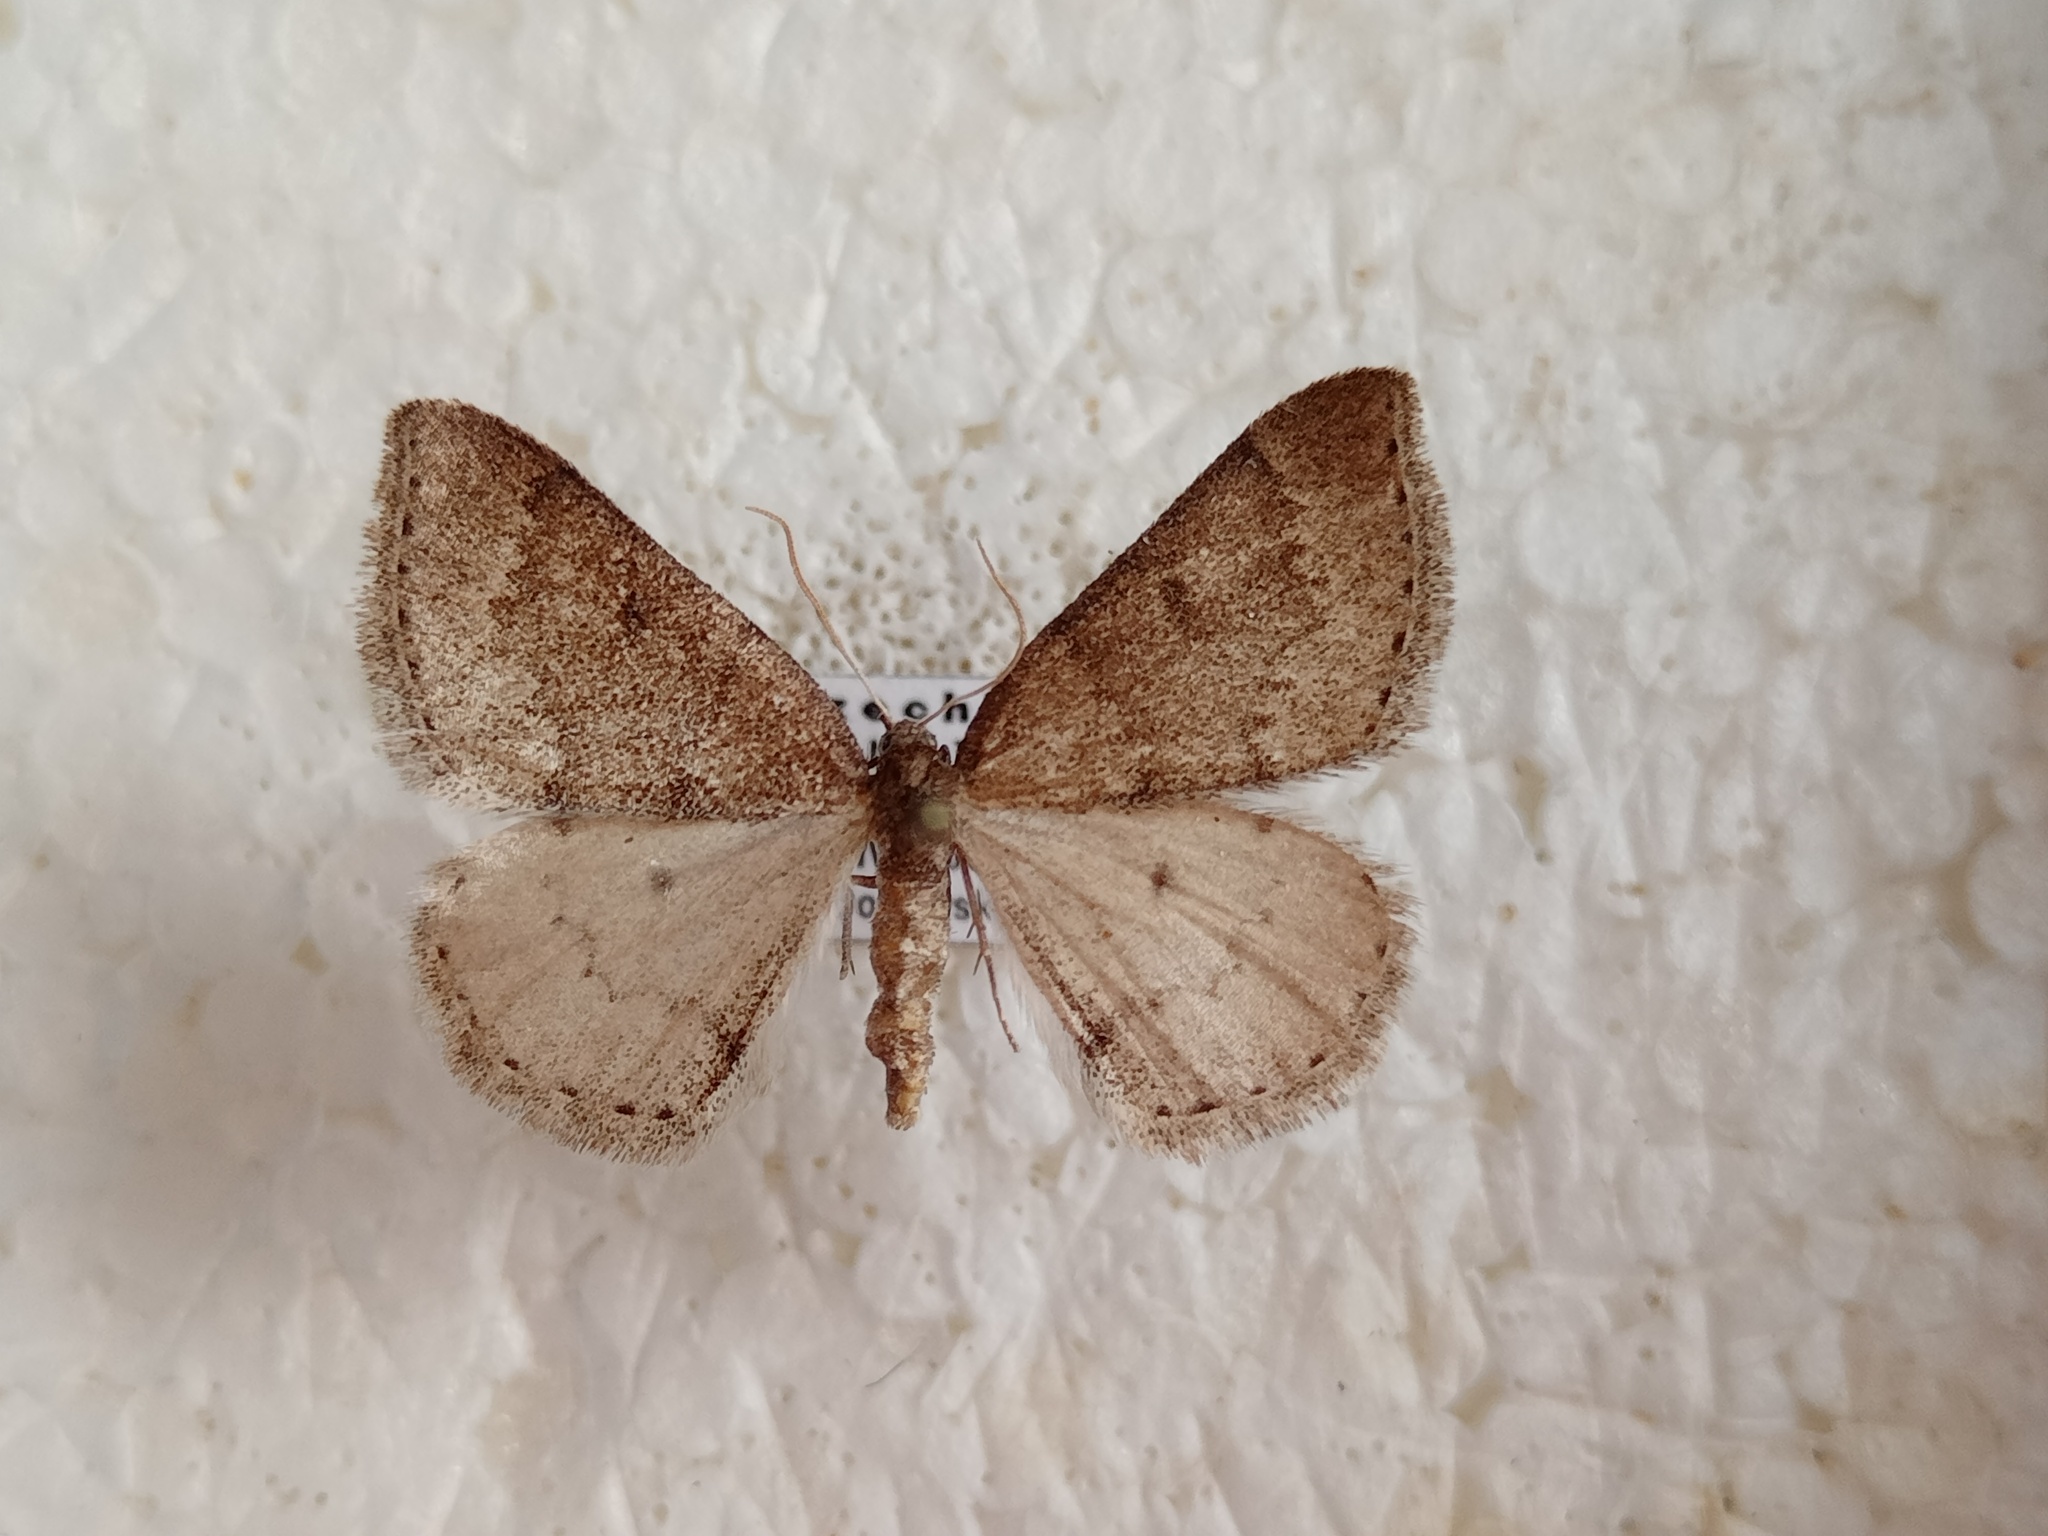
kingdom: Animalia
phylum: Arthropoda
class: Insecta
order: Lepidoptera
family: Geometridae
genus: Aleucis
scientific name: Aleucis distinctata
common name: Sloe carpet
